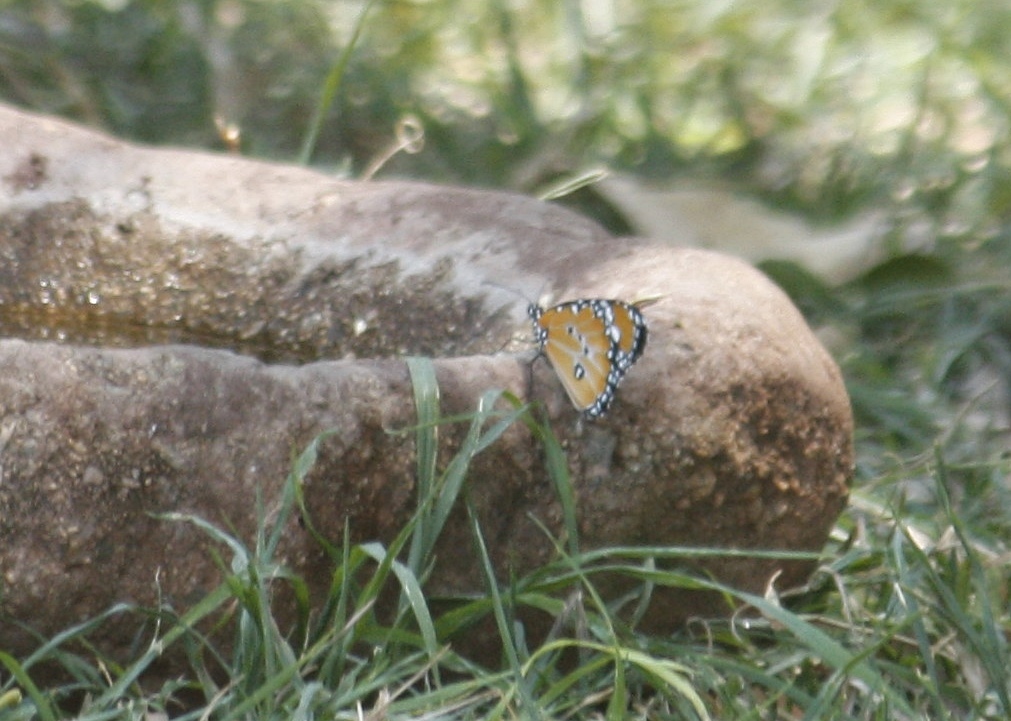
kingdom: Animalia
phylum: Arthropoda
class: Insecta
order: Lepidoptera
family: Nymphalidae
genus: Danaus
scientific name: Danaus chrysippus
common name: Plain tiger
